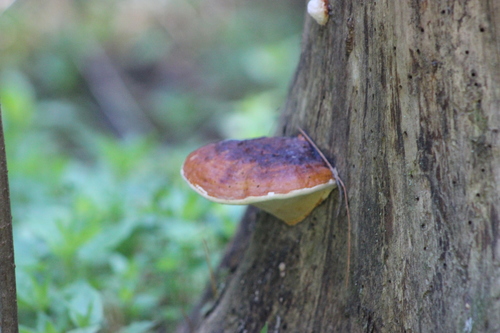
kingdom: Fungi
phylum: Basidiomycota
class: Agaricomycetes
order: Polyporales
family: Fomitopsidaceae
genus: Fomitopsis
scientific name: Fomitopsis pinicola
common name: Red-belted bracket
